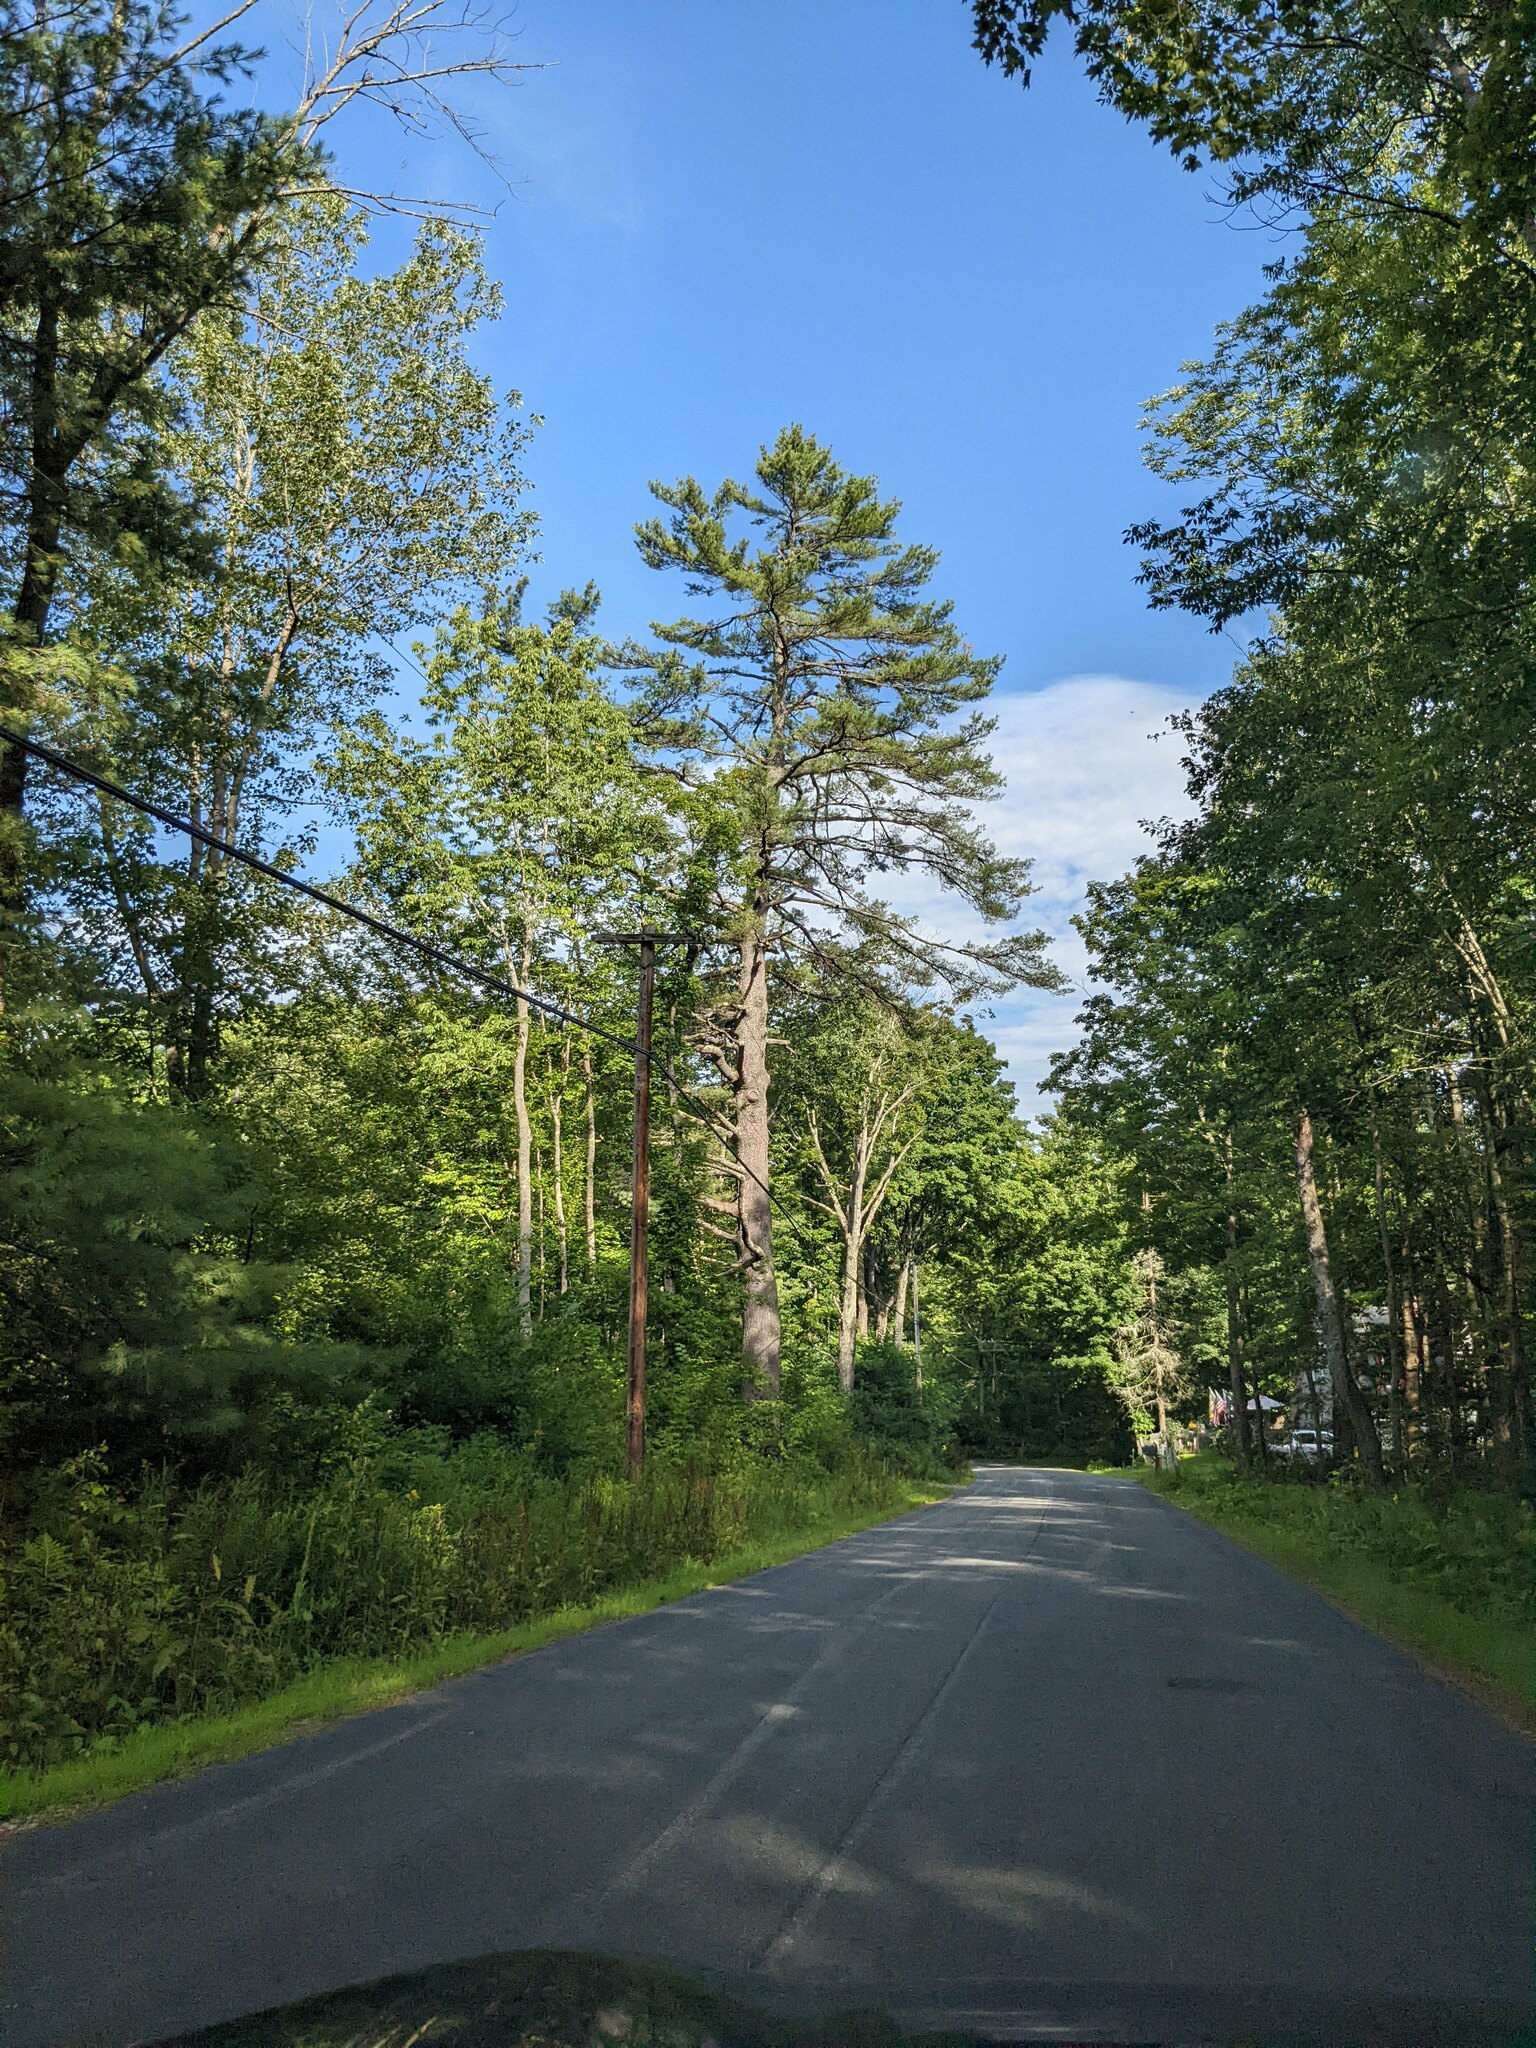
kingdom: Plantae
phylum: Tracheophyta
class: Pinopsida
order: Pinales
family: Pinaceae
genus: Pinus
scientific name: Pinus strobus
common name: Weymouth pine
